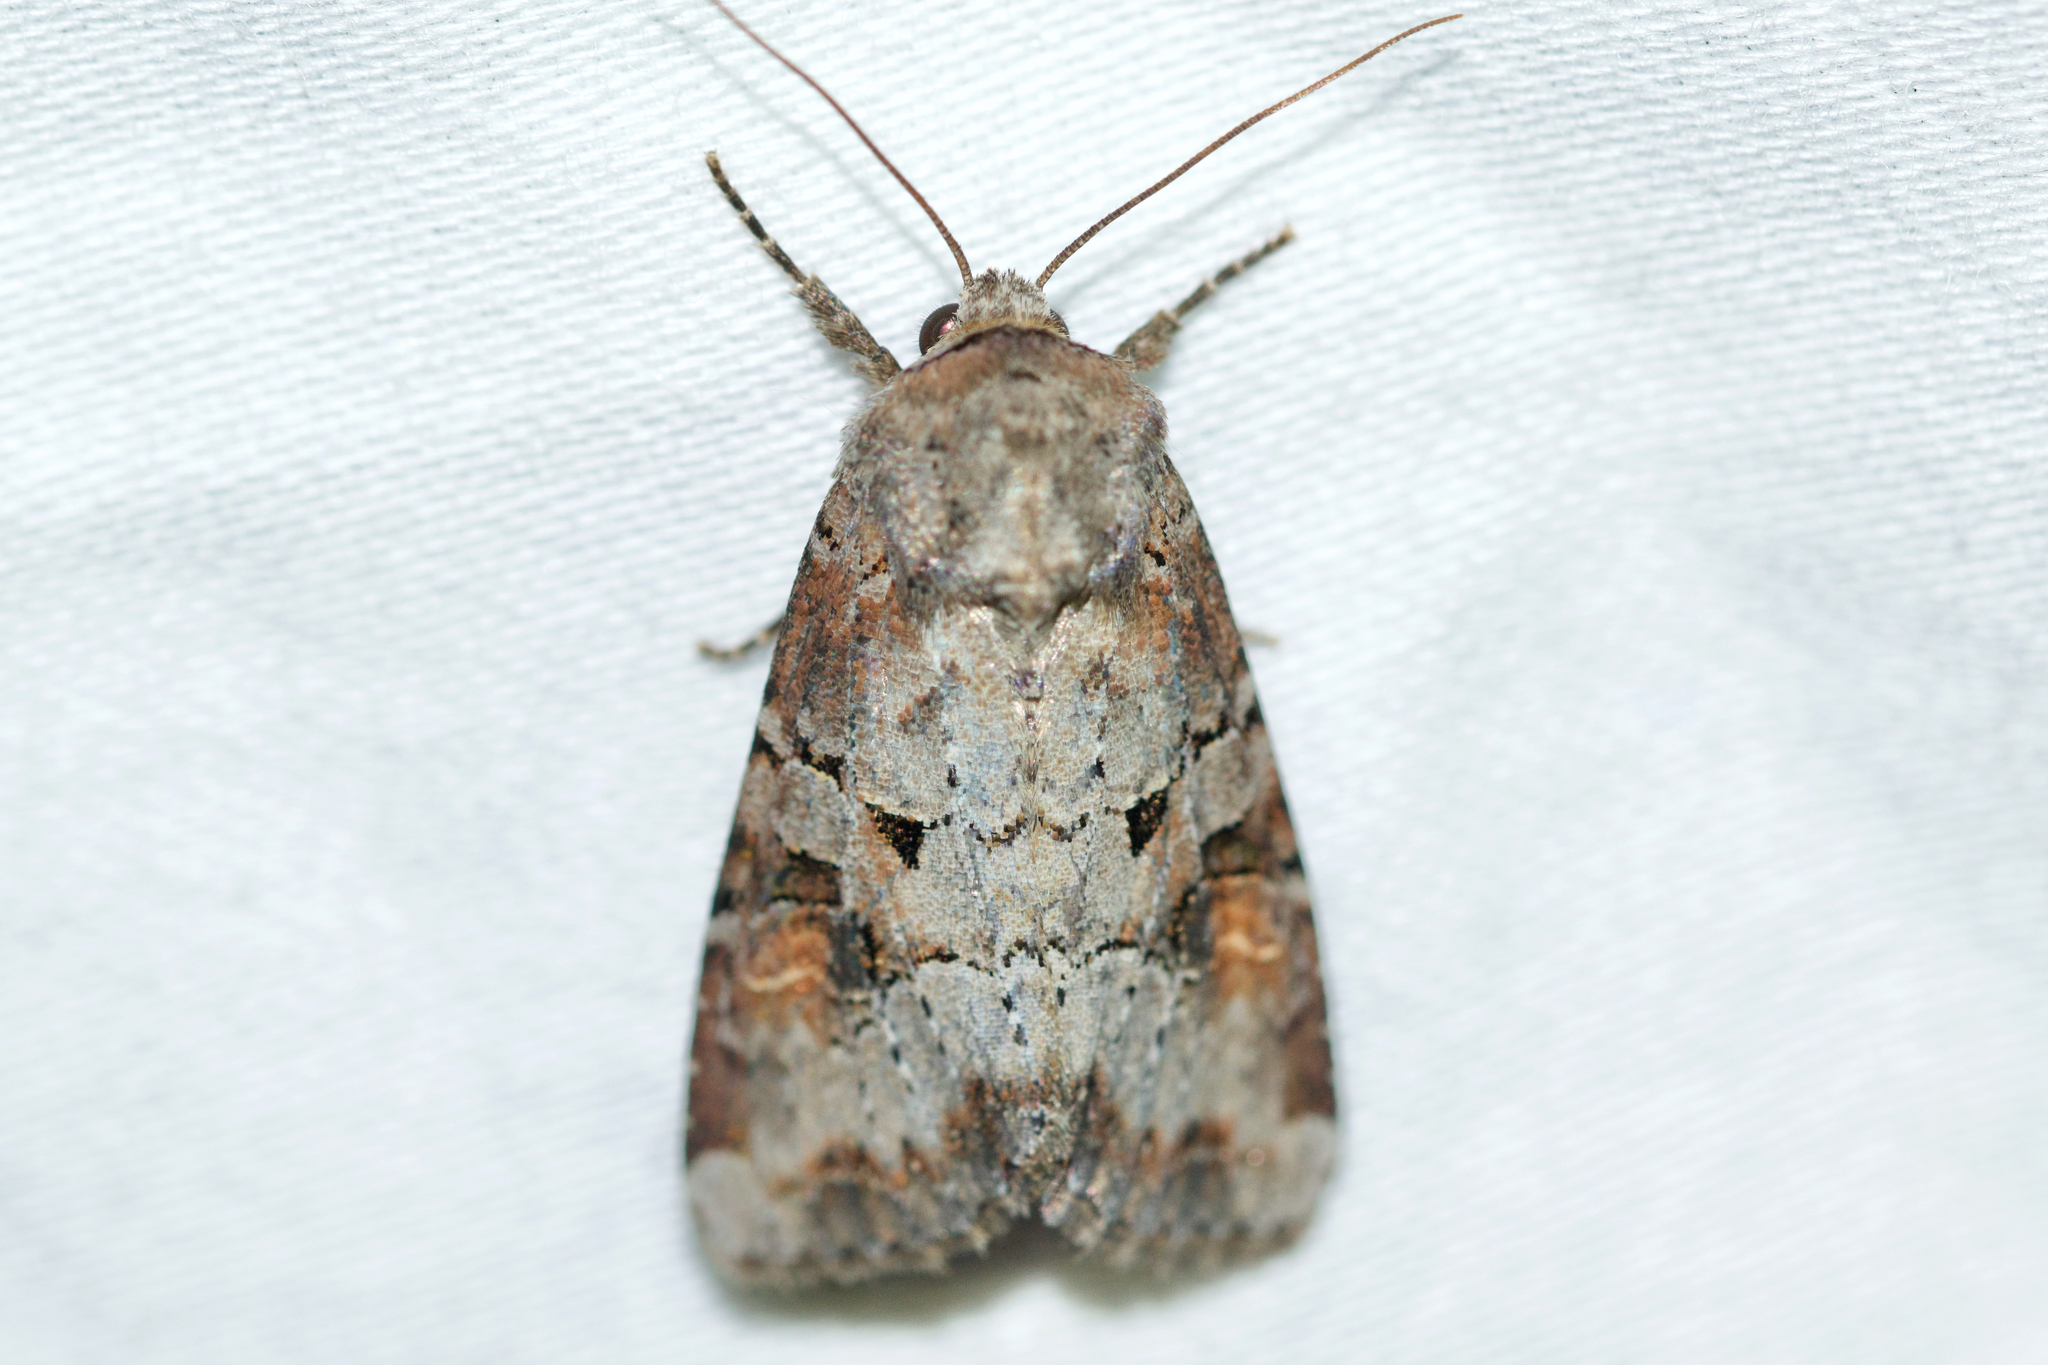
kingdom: Animalia
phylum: Arthropoda
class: Insecta
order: Lepidoptera
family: Noctuidae
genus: Trichordestra
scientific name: Trichordestra legitima
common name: Striped garden caterpillar
